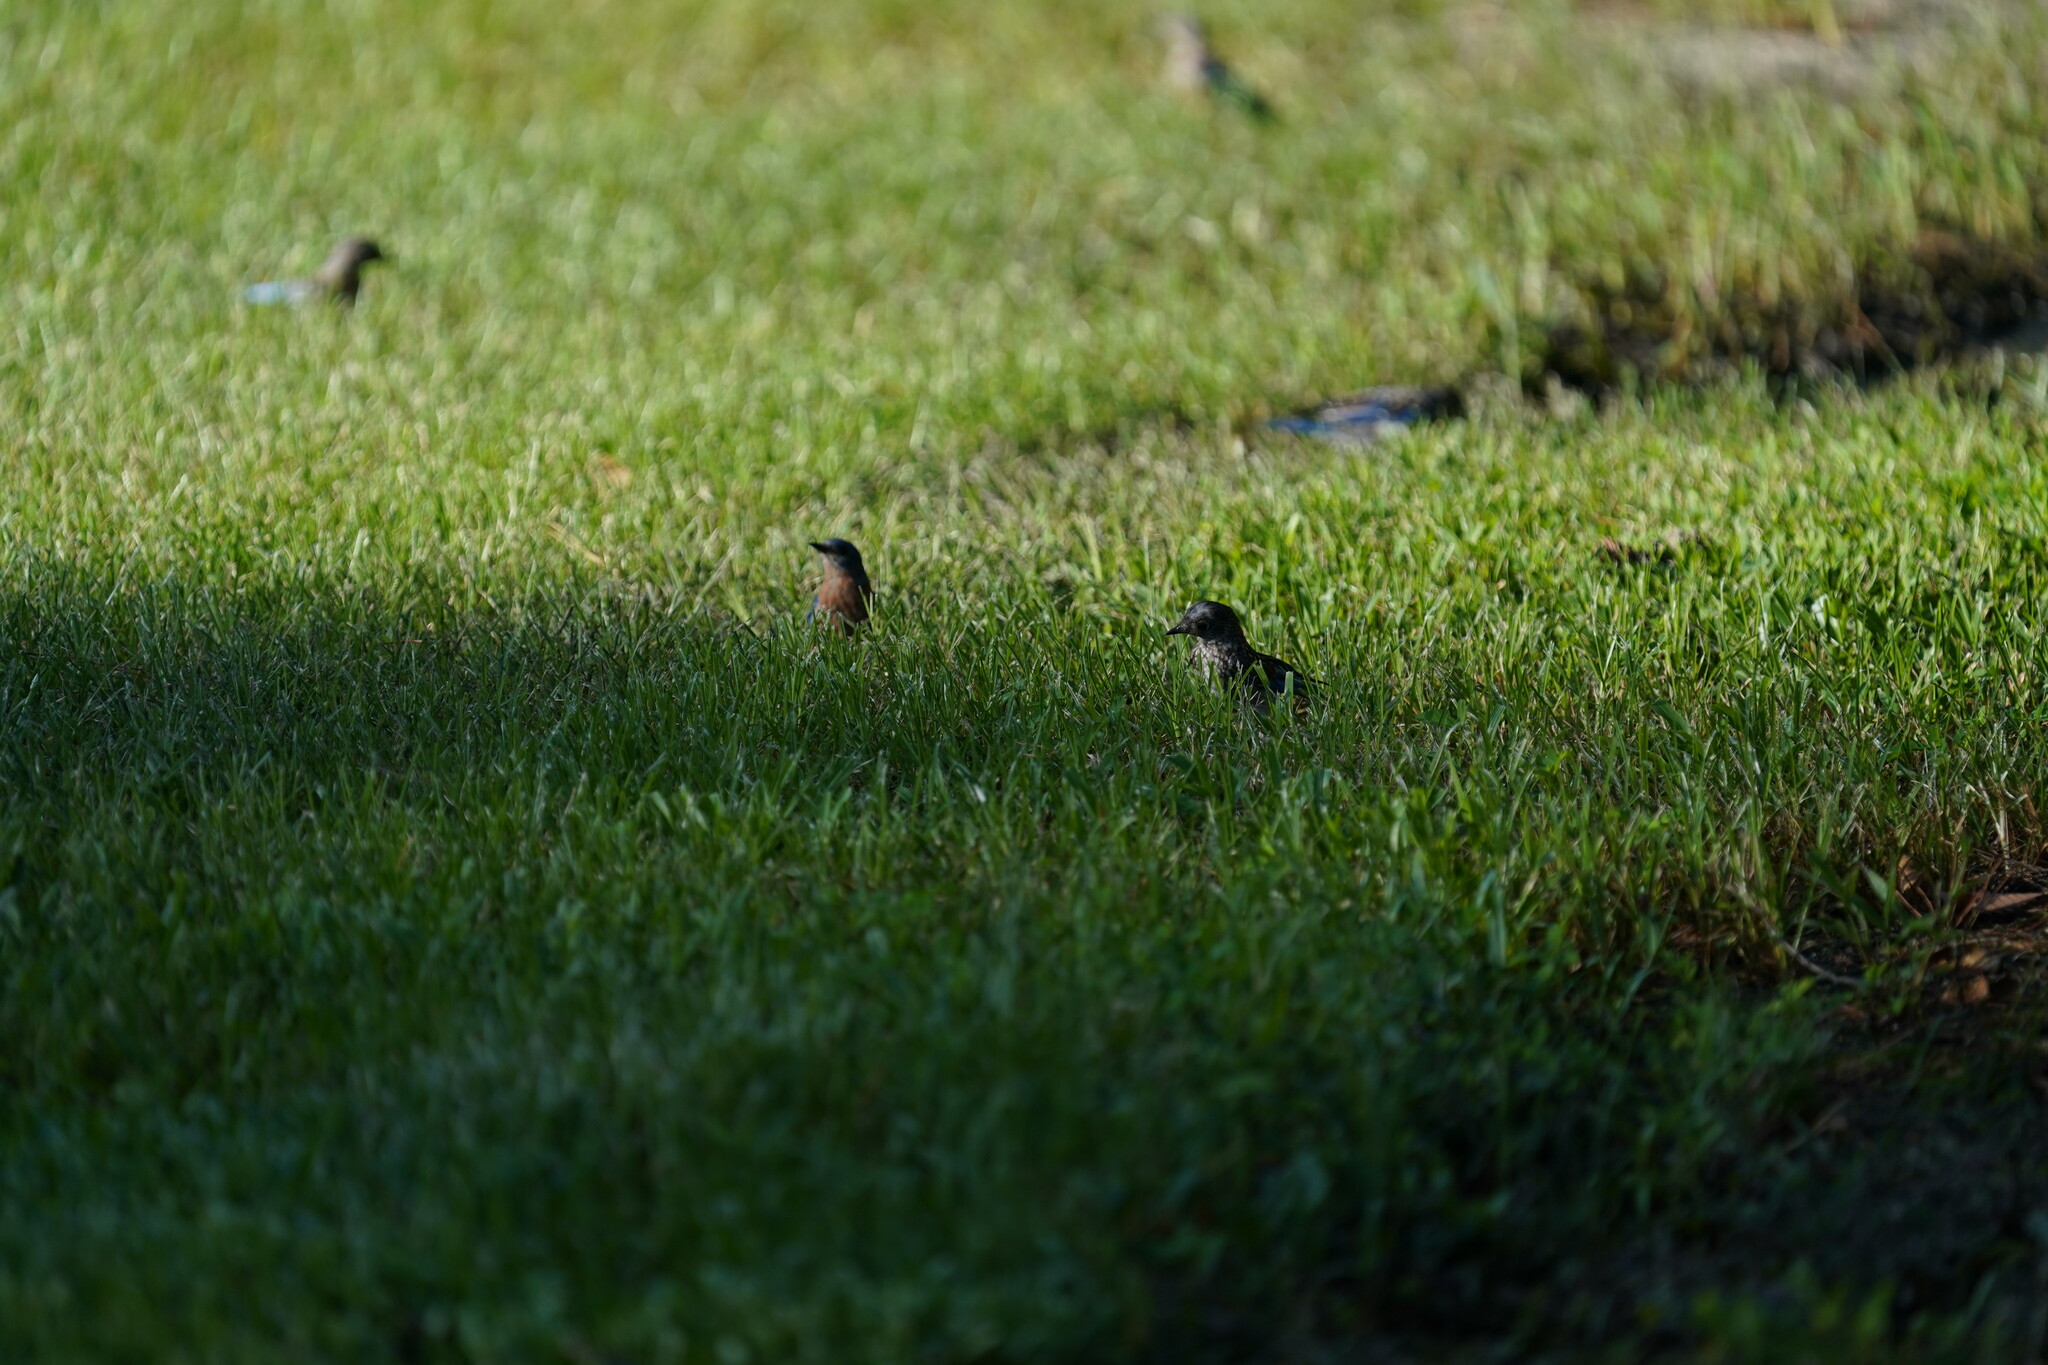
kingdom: Animalia
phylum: Chordata
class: Aves
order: Passeriformes
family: Turdidae
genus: Sialia
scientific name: Sialia sialis
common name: Eastern bluebird
